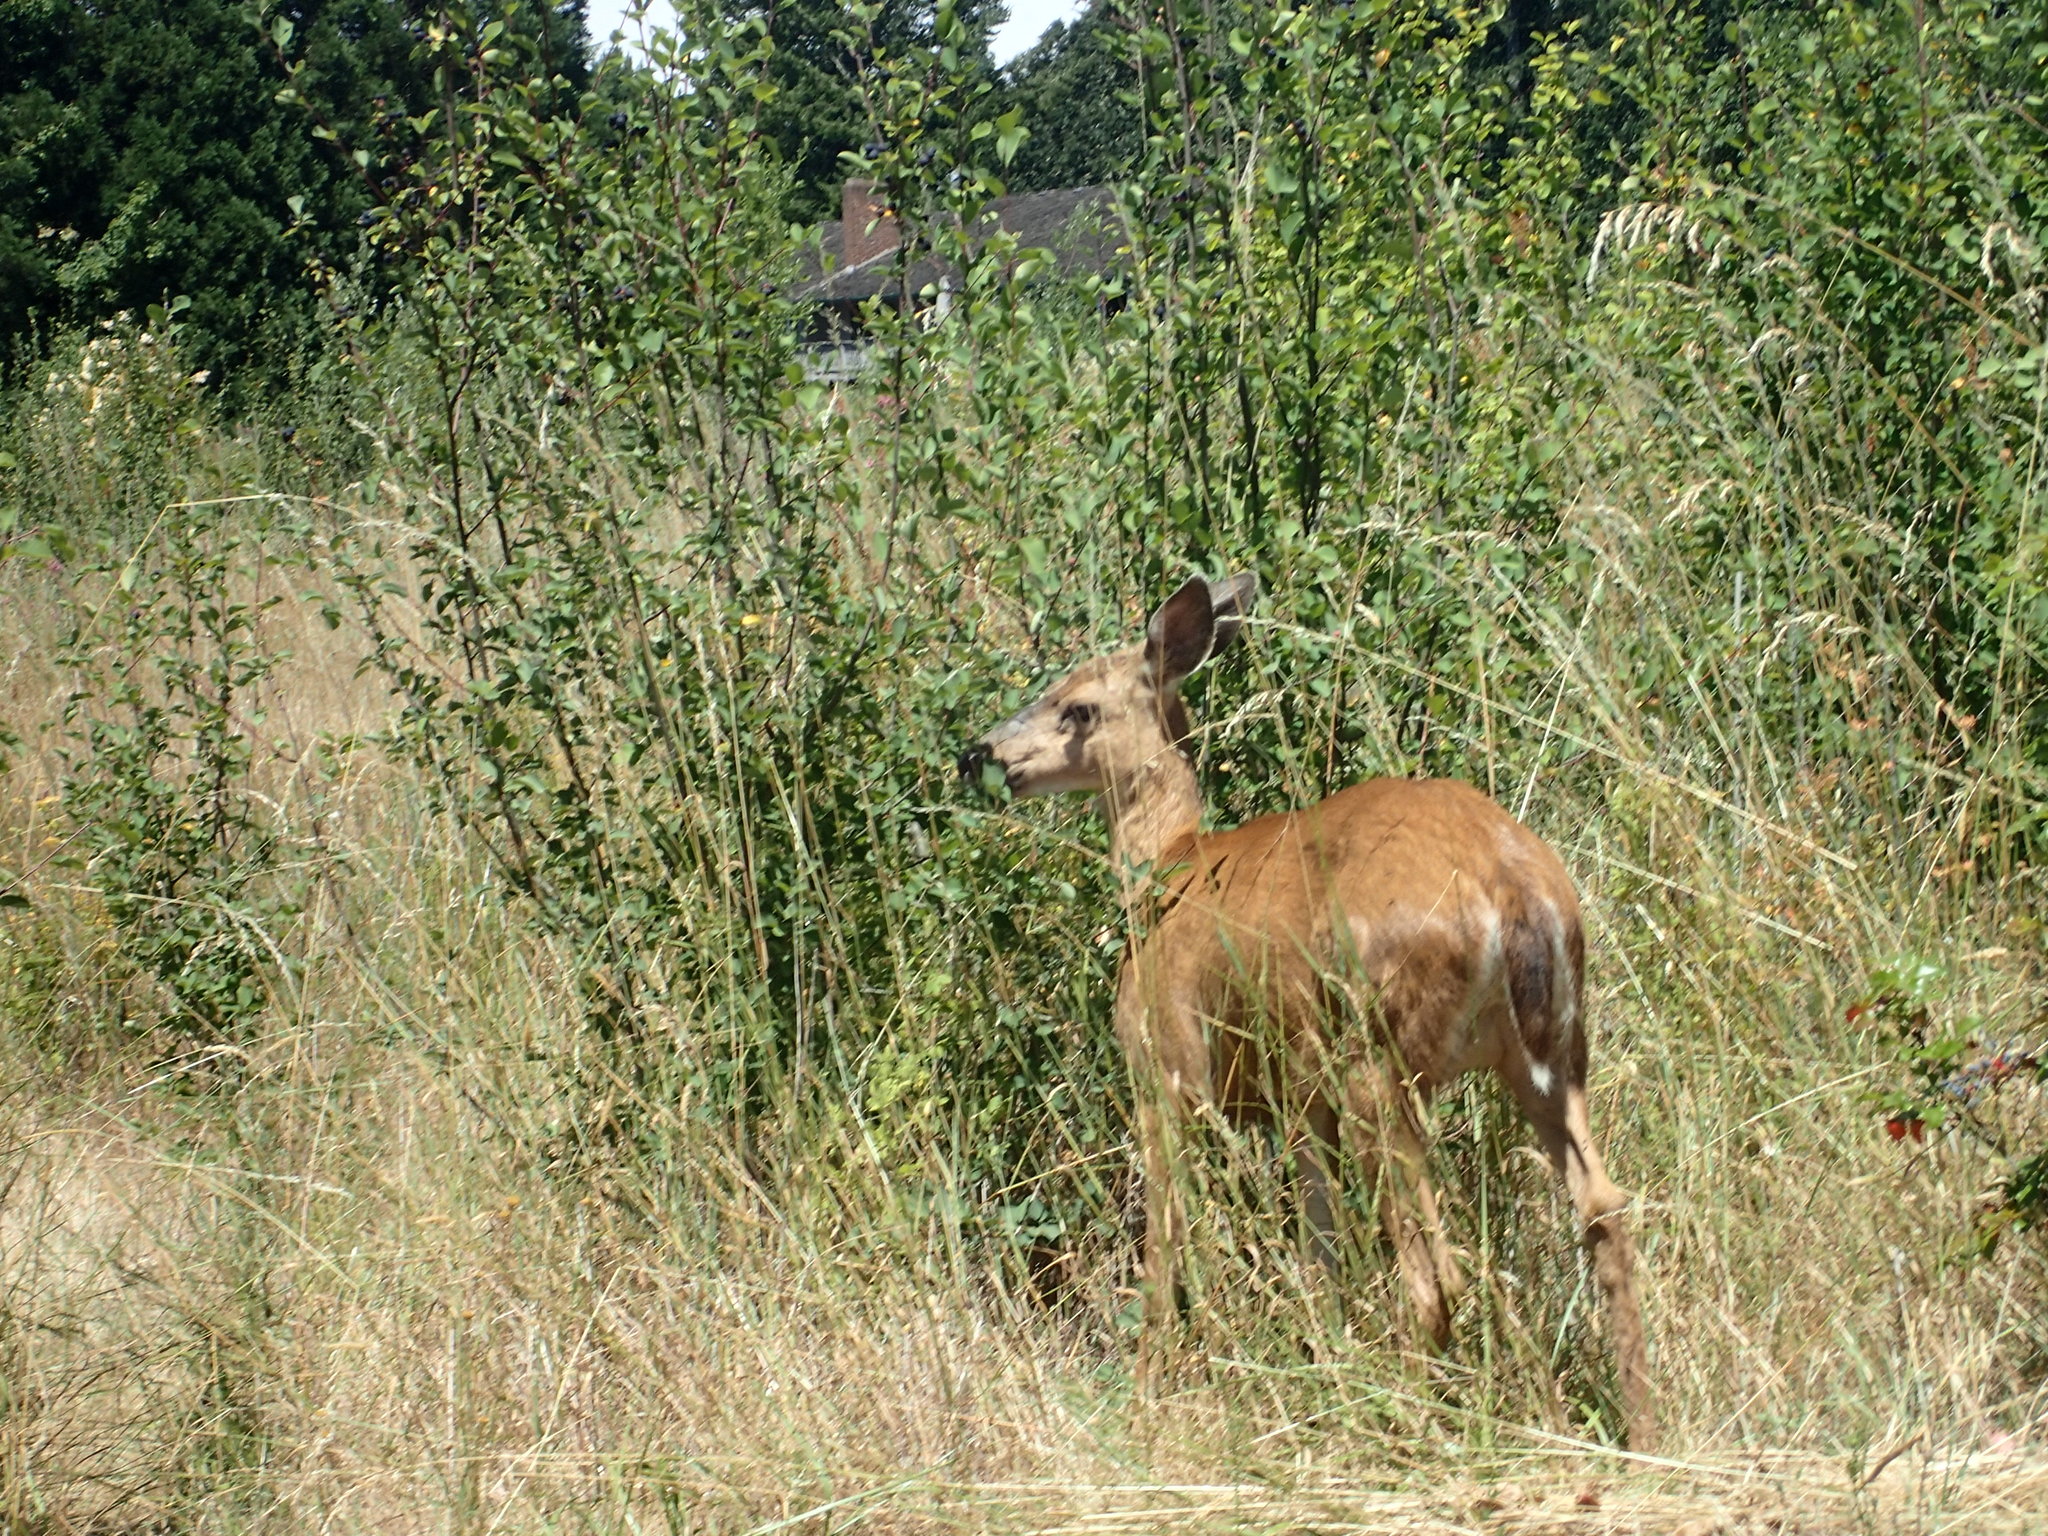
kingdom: Animalia
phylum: Chordata
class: Mammalia
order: Artiodactyla
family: Cervidae
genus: Odocoileus
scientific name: Odocoileus hemionus
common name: Mule deer
